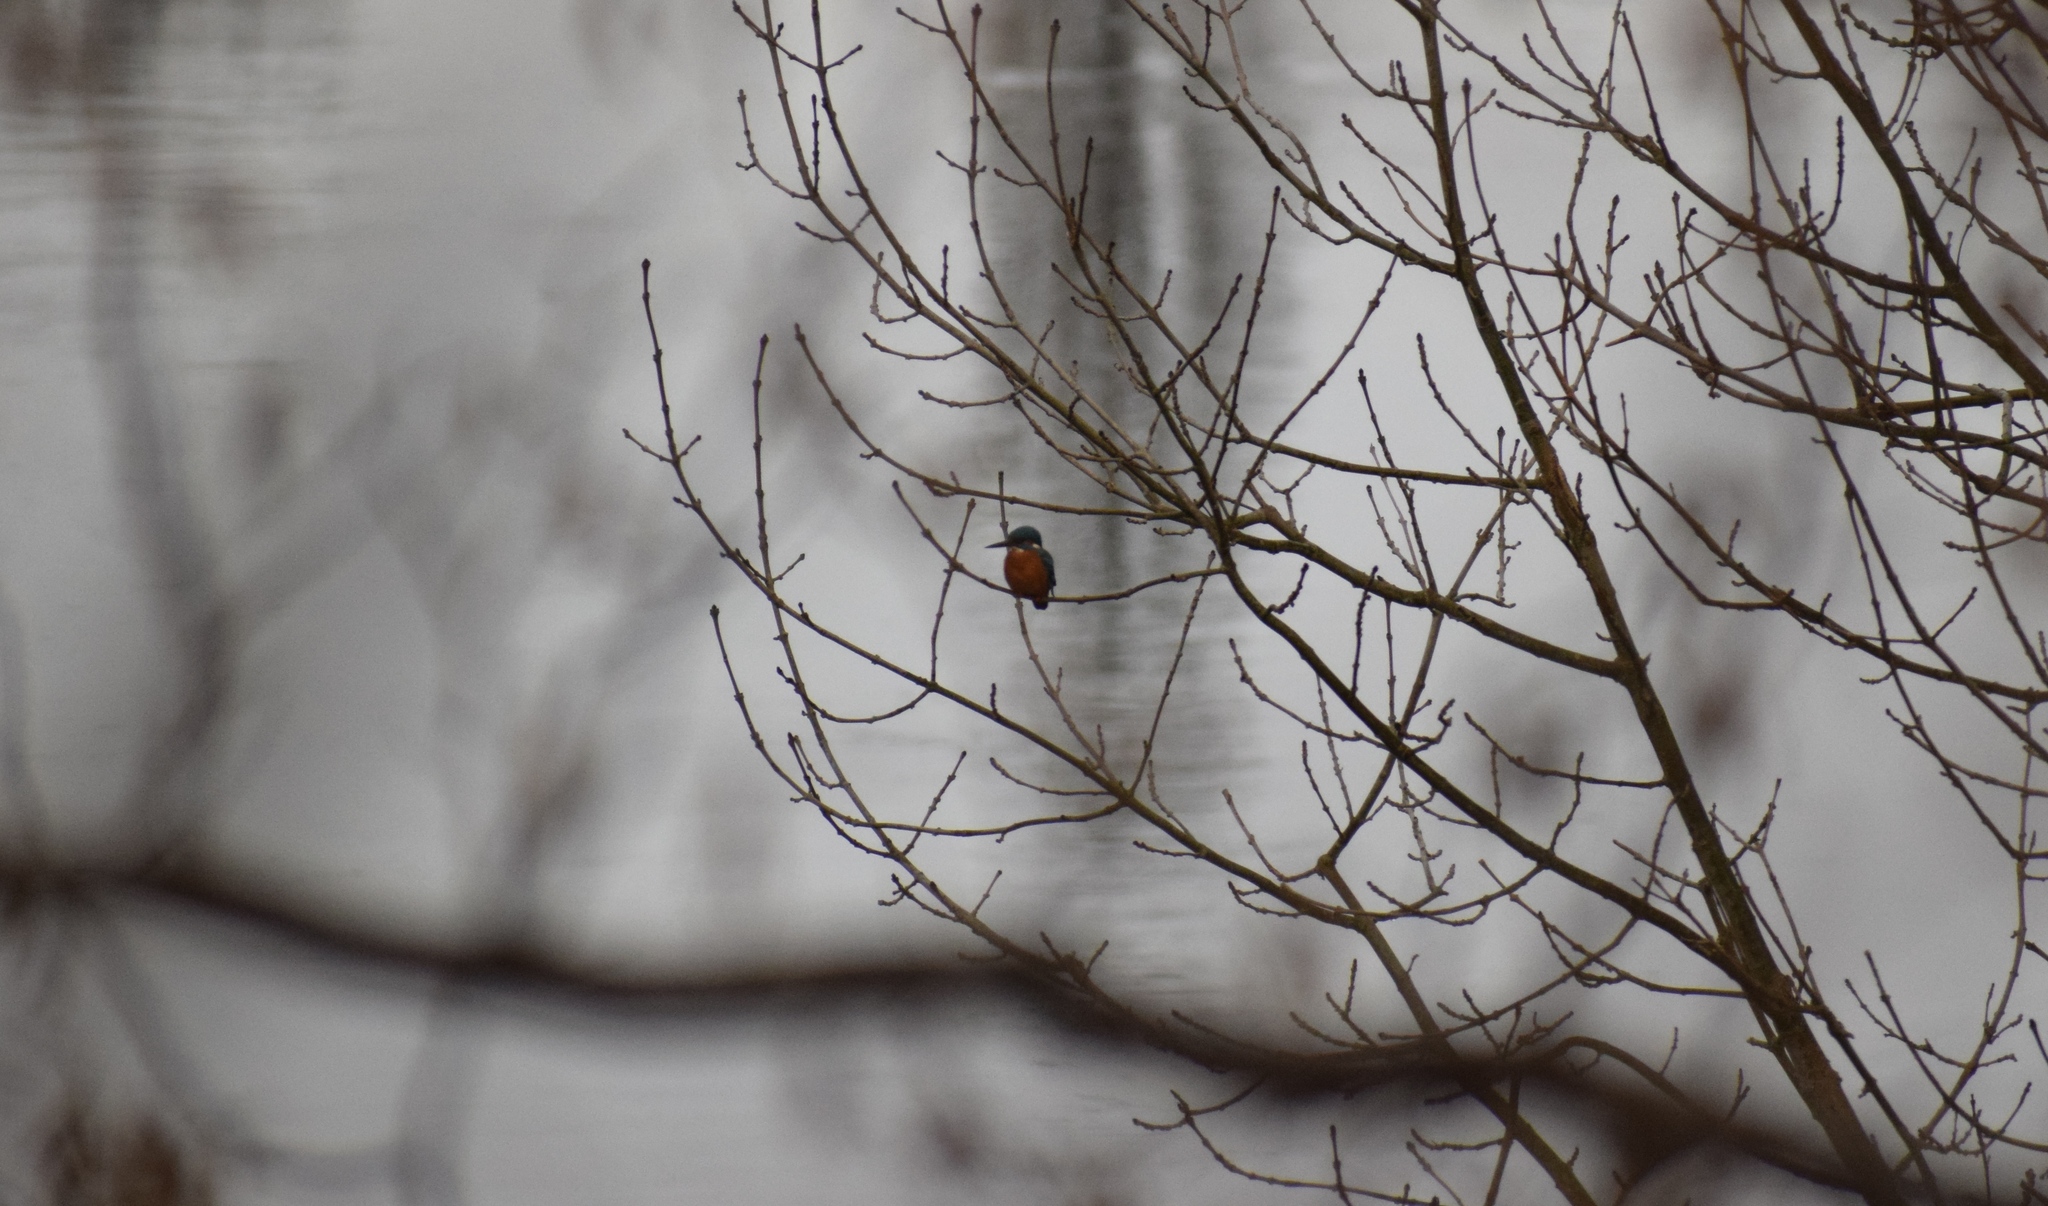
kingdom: Animalia
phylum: Chordata
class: Aves
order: Coraciiformes
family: Alcedinidae
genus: Alcedo
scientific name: Alcedo atthis
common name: Common kingfisher
